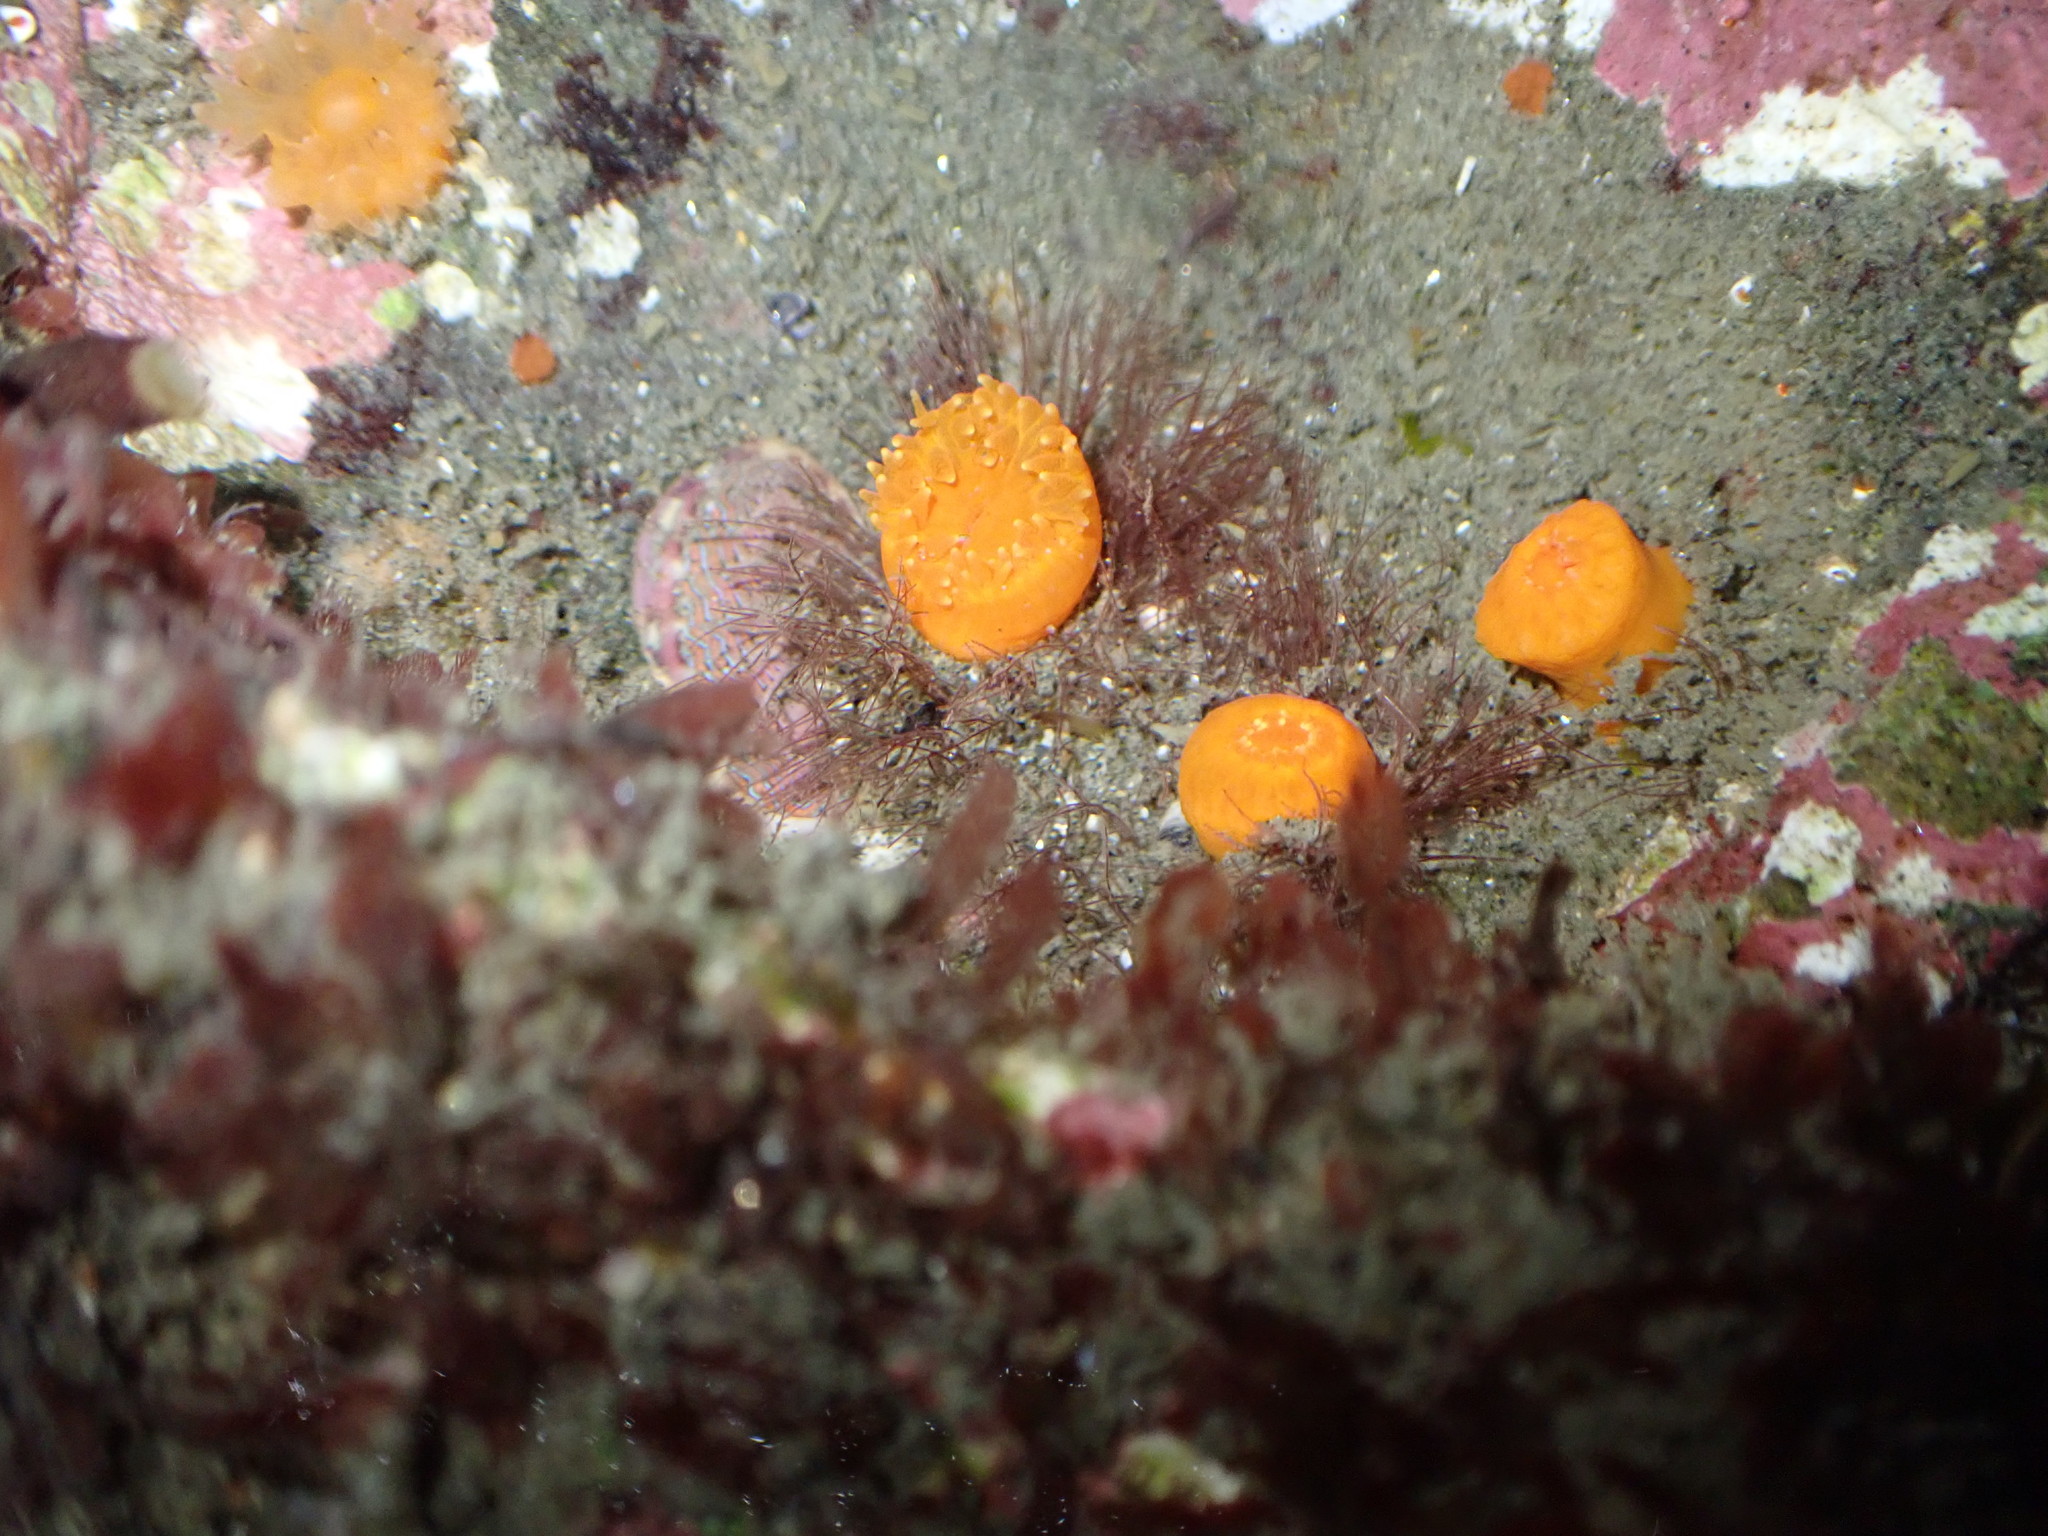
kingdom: Animalia
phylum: Cnidaria
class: Anthozoa
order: Scleractinia
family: Dendrophylliidae
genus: Balanophyllia
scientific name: Balanophyllia elegans
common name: Orange stony coral
